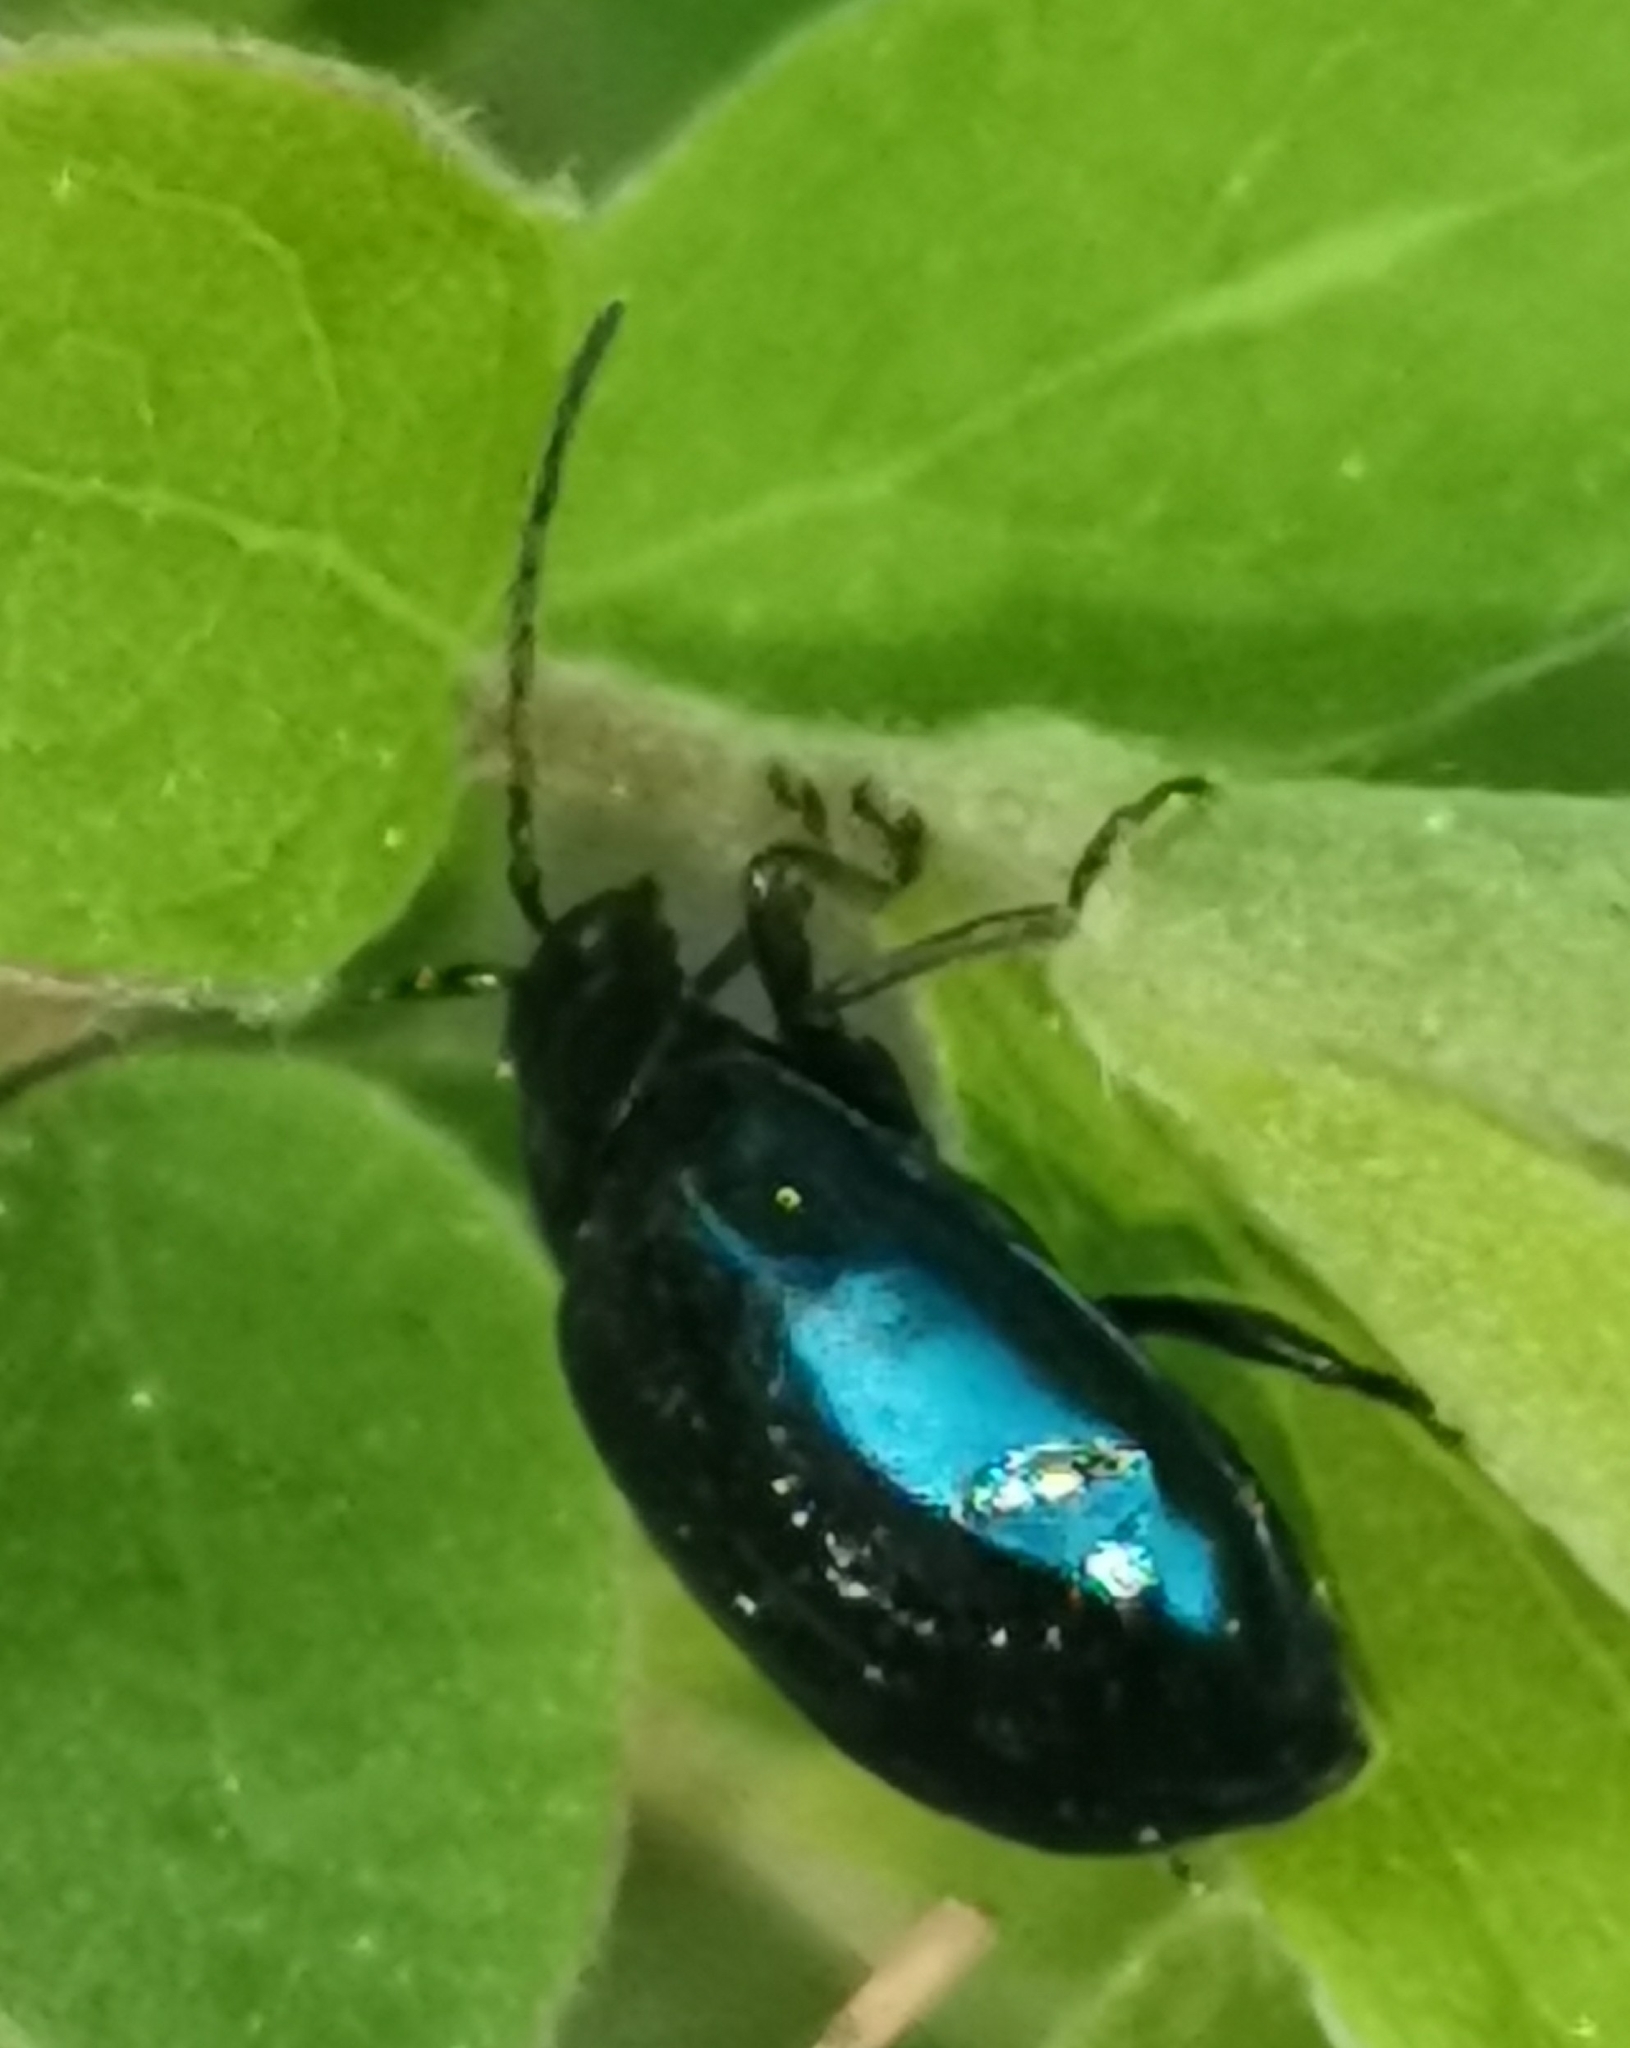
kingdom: Animalia
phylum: Arthropoda
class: Insecta
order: Coleoptera
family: Chrysomelidae
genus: Agelastica
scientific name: Agelastica alni
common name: Alder leaf beetle
